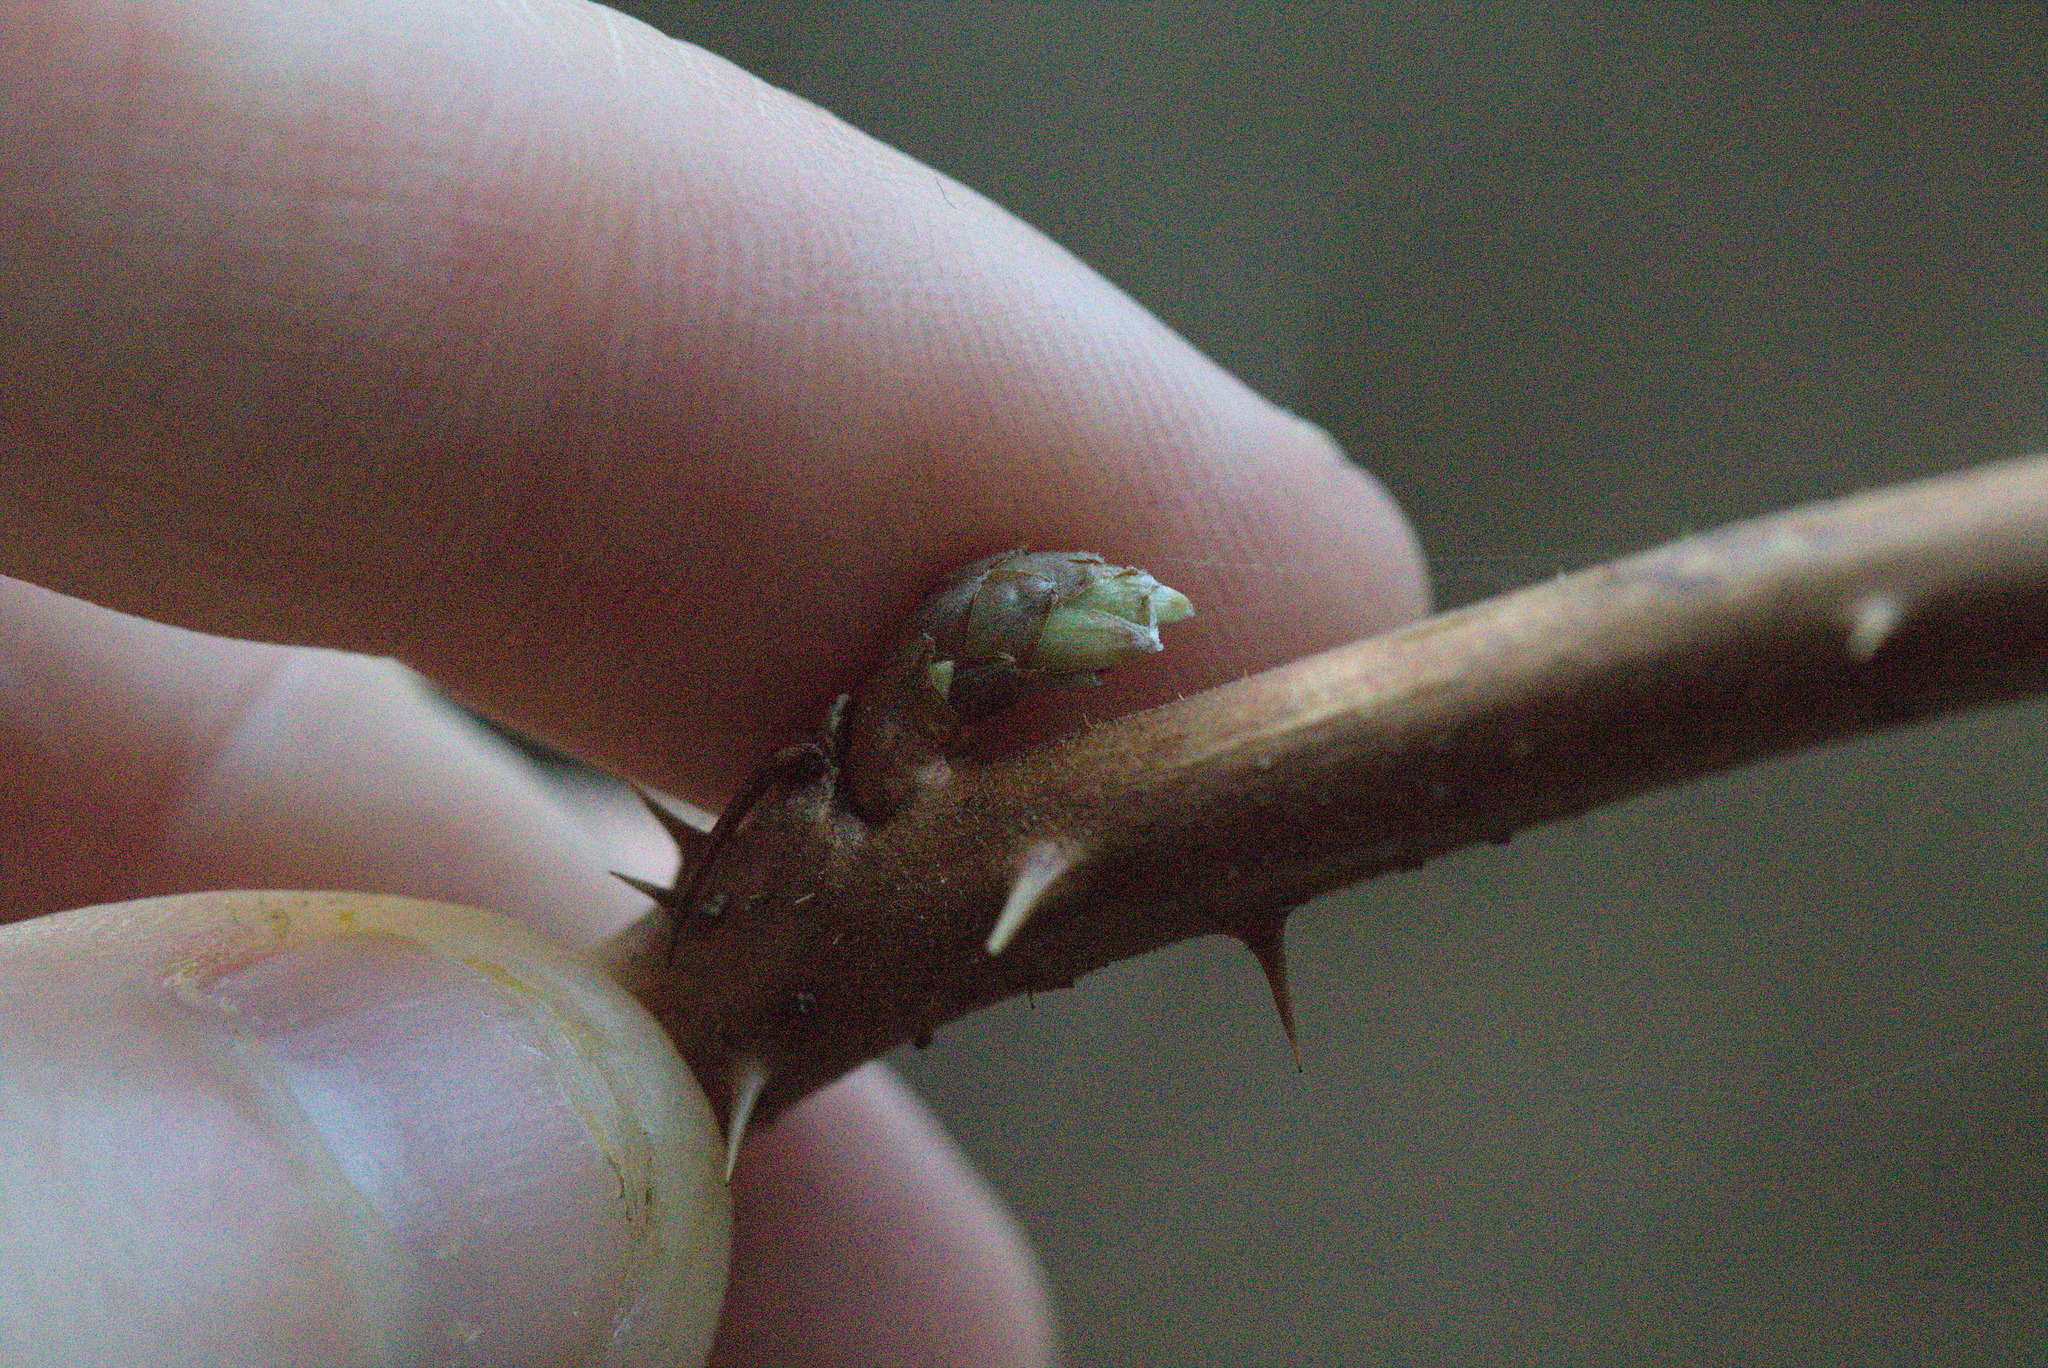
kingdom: Plantae
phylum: Tracheophyta
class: Magnoliopsida
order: Rosales
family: Rosaceae
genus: Rubus
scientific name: Rubus spectabilis
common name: Salmonberry
